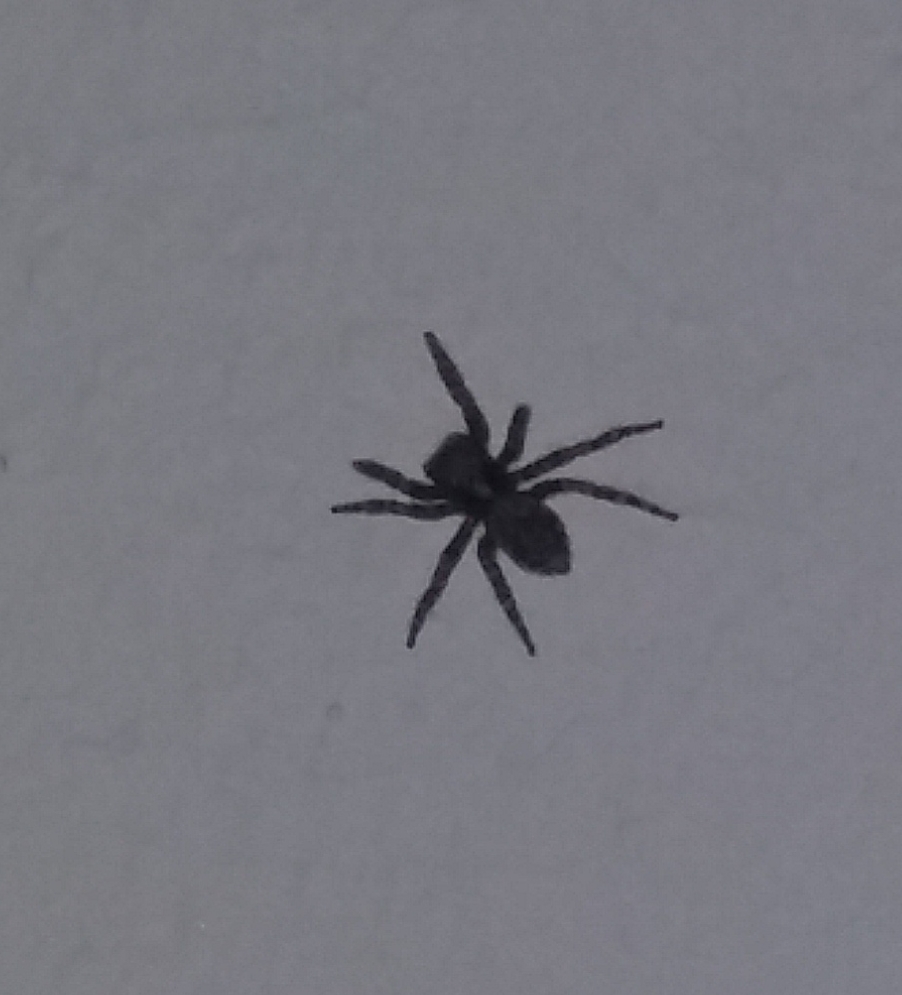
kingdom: Animalia
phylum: Arthropoda
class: Arachnida
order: Araneae
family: Salticidae
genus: Pseudeuophrys
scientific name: Pseudeuophrys lanigera
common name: Jumping spider
